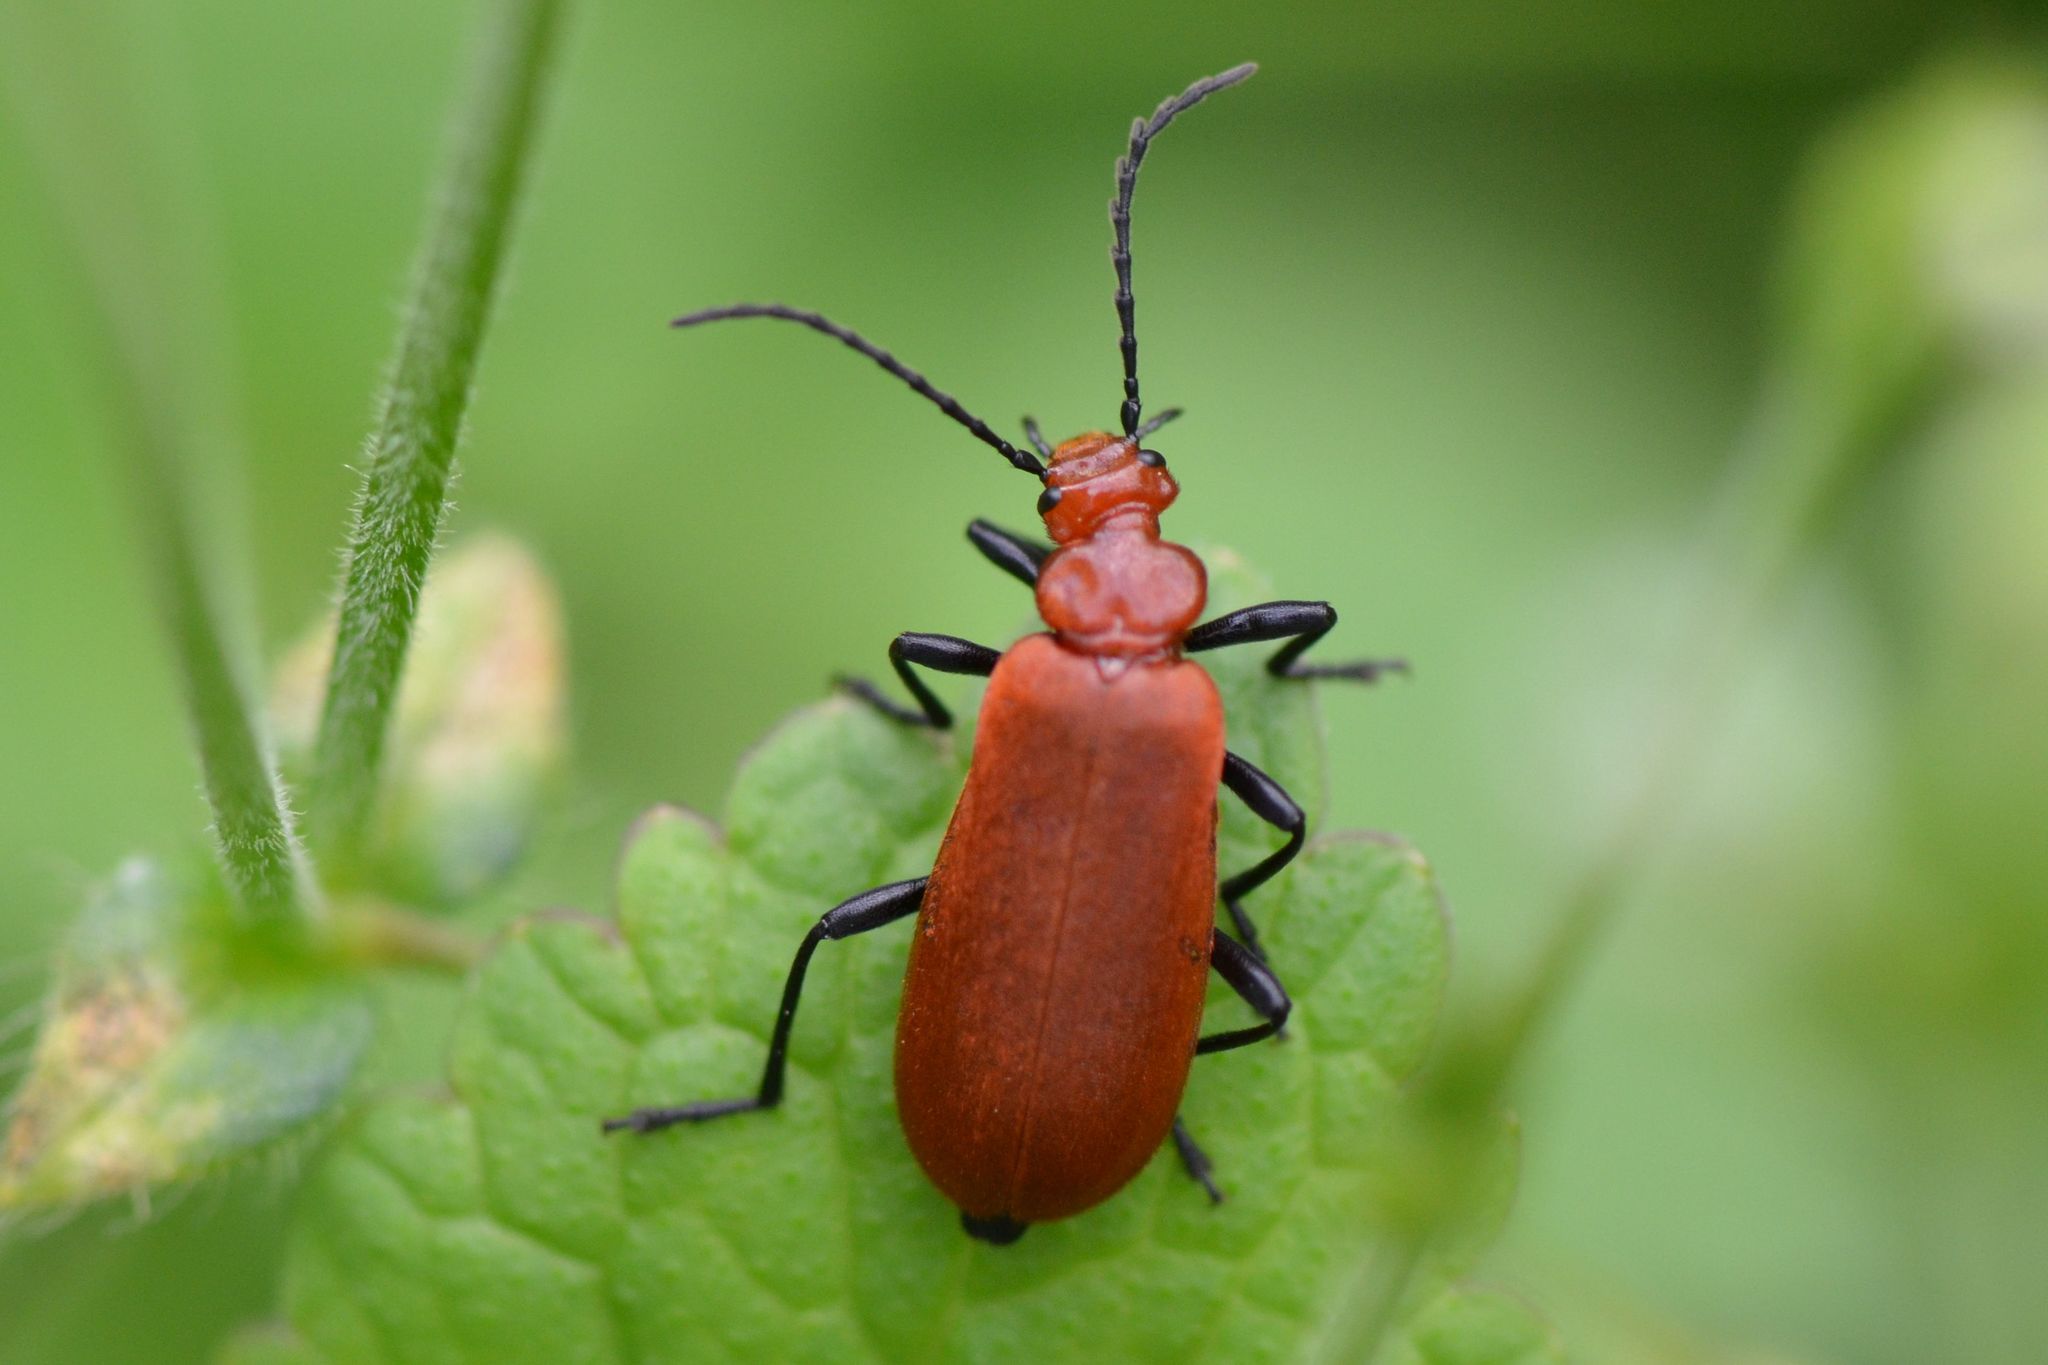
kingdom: Animalia
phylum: Arthropoda
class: Insecta
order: Coleoptera
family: Pyrochroidae
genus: Pyrochroa
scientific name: Pyrochroa serraticornis
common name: Red-headed cardinal beetle
